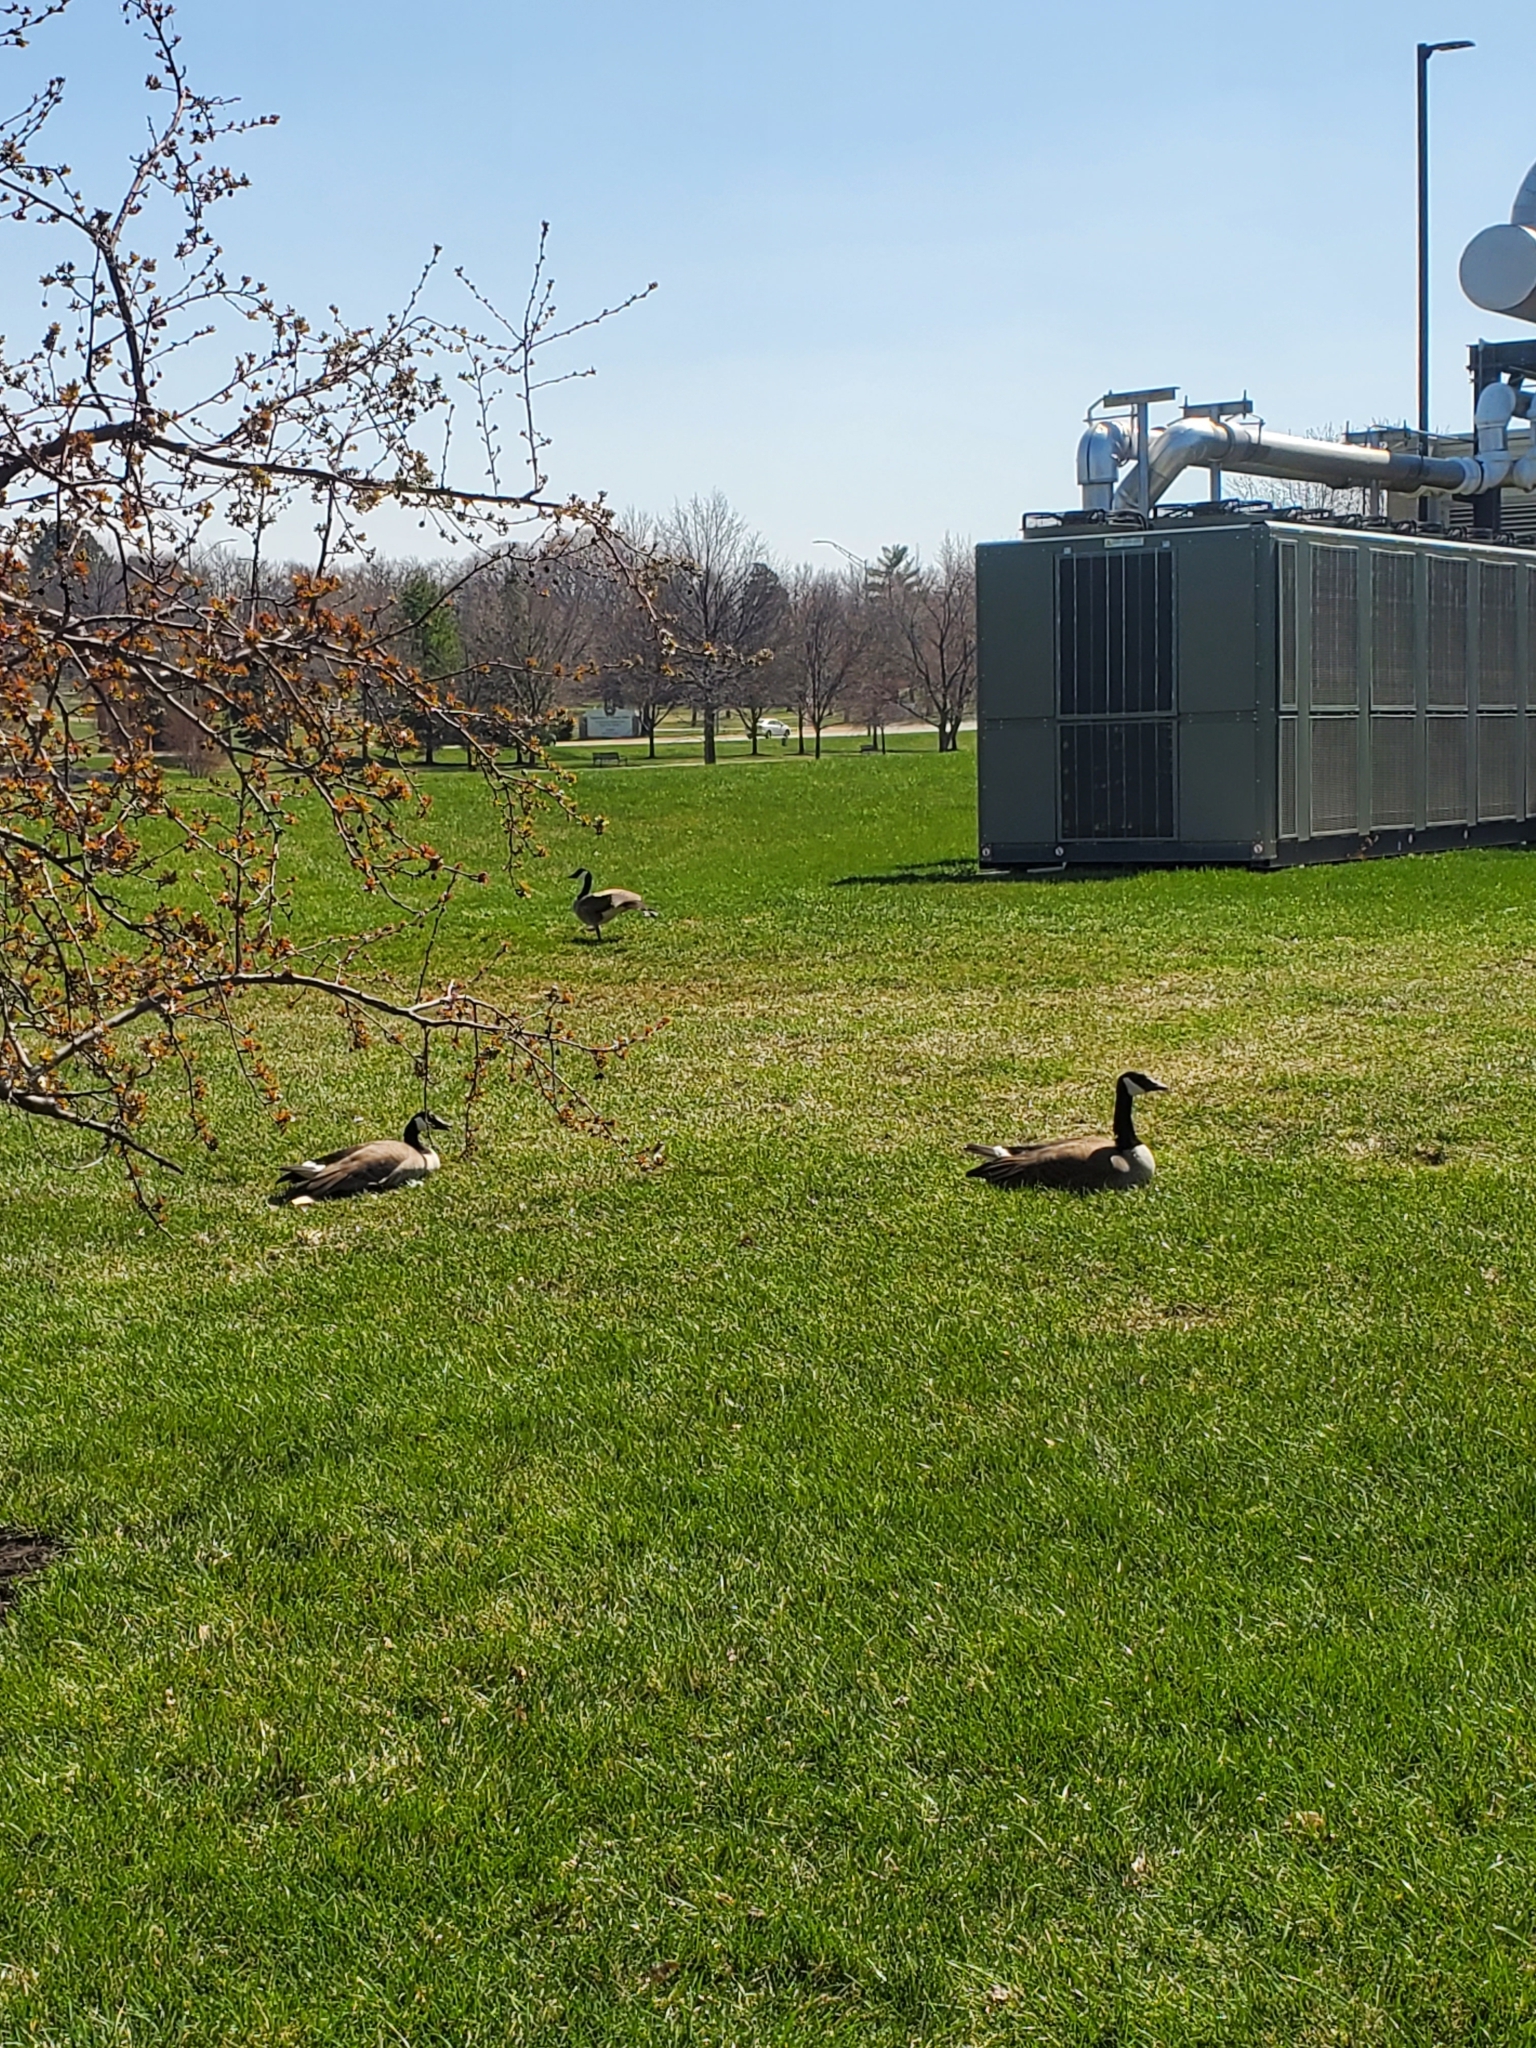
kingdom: Animalia
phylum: Chordata
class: Aves
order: Anseriformes
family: Anatidae
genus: Branta
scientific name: Branta canadensis
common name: Canada goose
